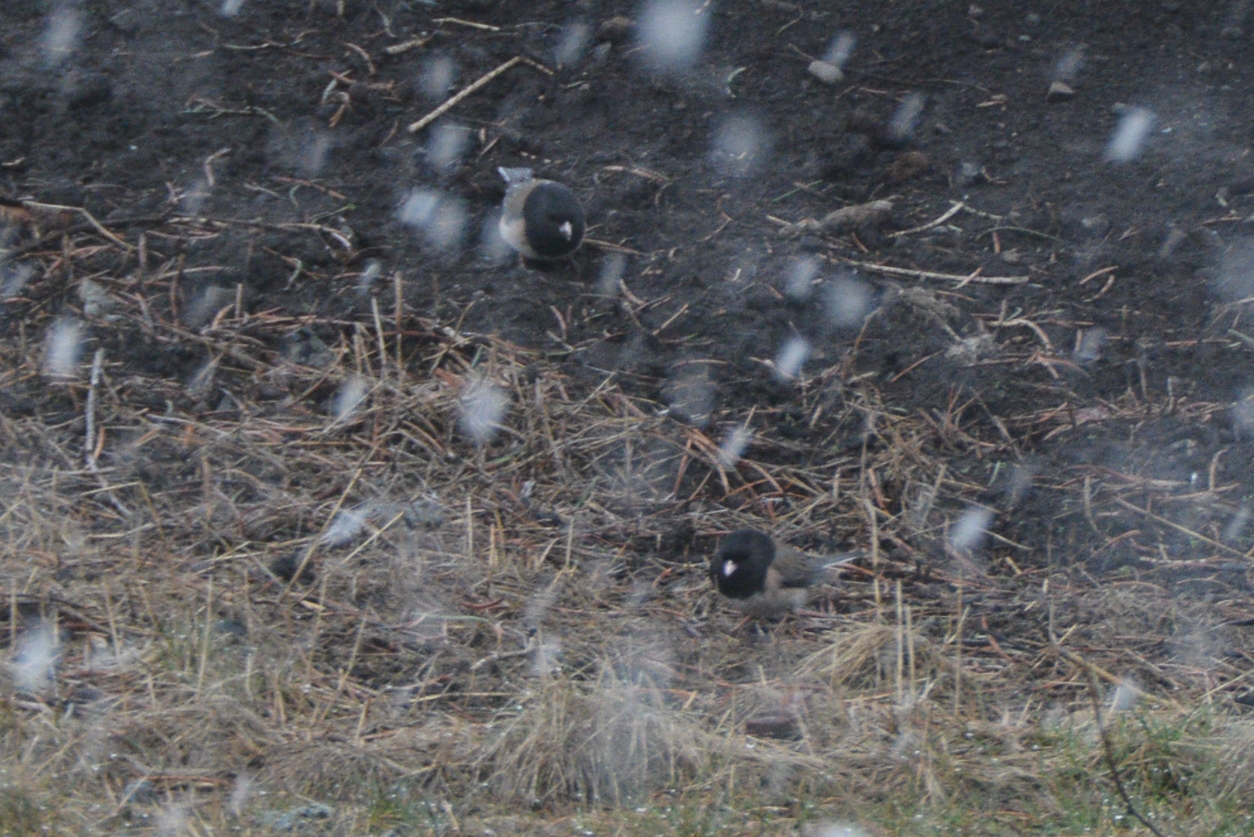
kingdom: Animalia
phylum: Chordata
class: Aves
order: Passeriformes
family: Passerellidae
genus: Junco
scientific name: Junco hyemalis
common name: Dark-eyed junco
